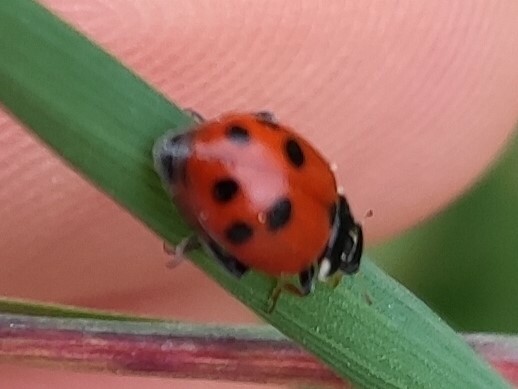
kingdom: Animalia
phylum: Arthropoda
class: Insecta
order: Coleoptera
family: Coccinellidae
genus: Hippodamia
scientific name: Hippodamia variegata
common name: Ladybird beetle
